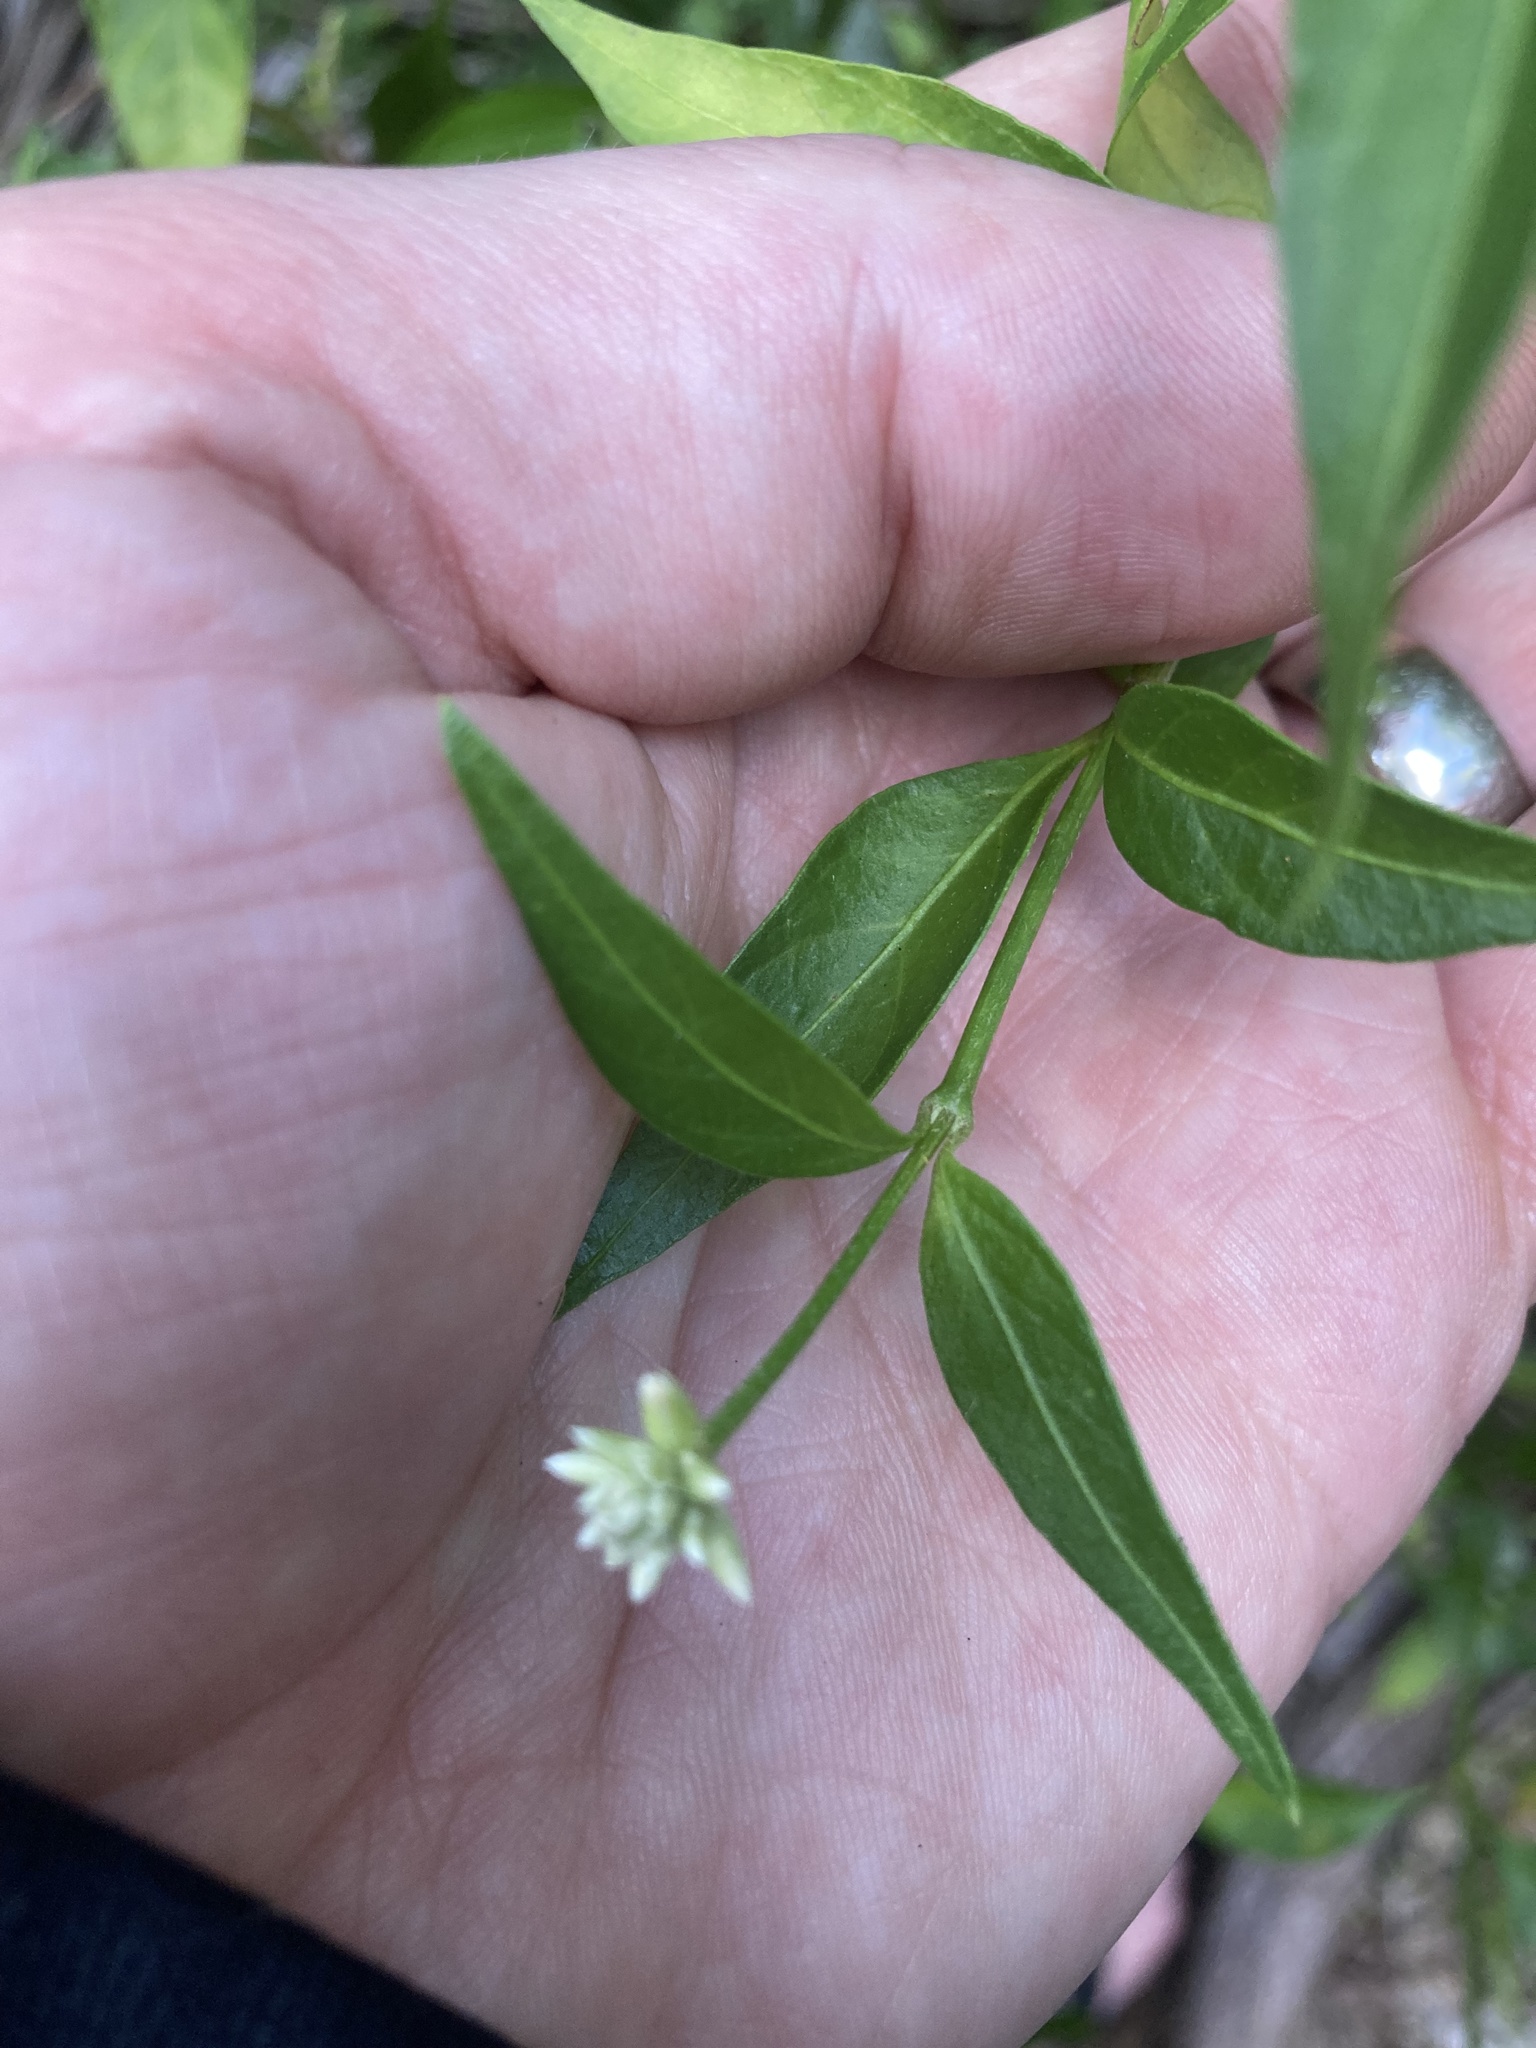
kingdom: Plantae
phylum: Tracheophyta
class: Magnoliopsida
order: Caryophyllales
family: Amaranthaceae
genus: Alternanthera
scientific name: Alternanthera flavescens
